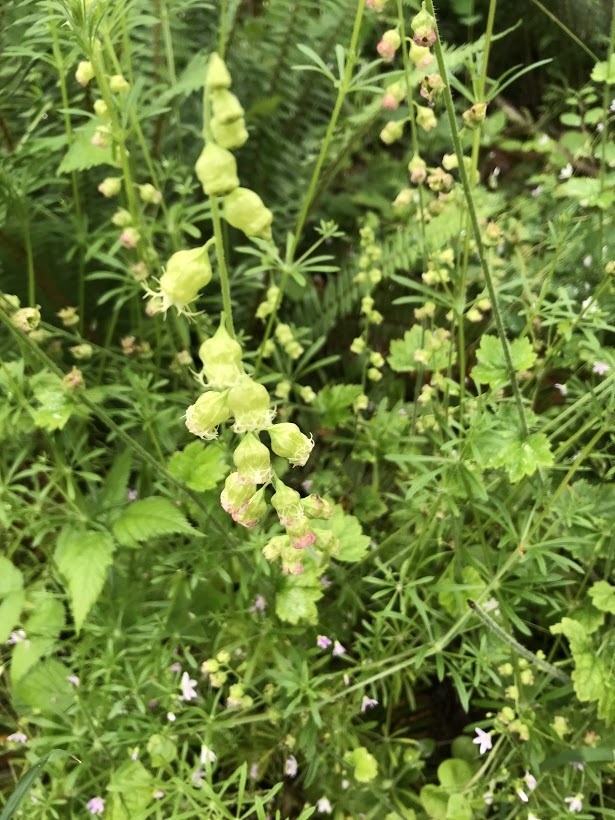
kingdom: Plantae
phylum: Tracheophyta
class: Magnoliopsida
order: Saxifragales
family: Saxifragaceae
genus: Tellima
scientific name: Tellima grandiflora
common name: Fringecups
